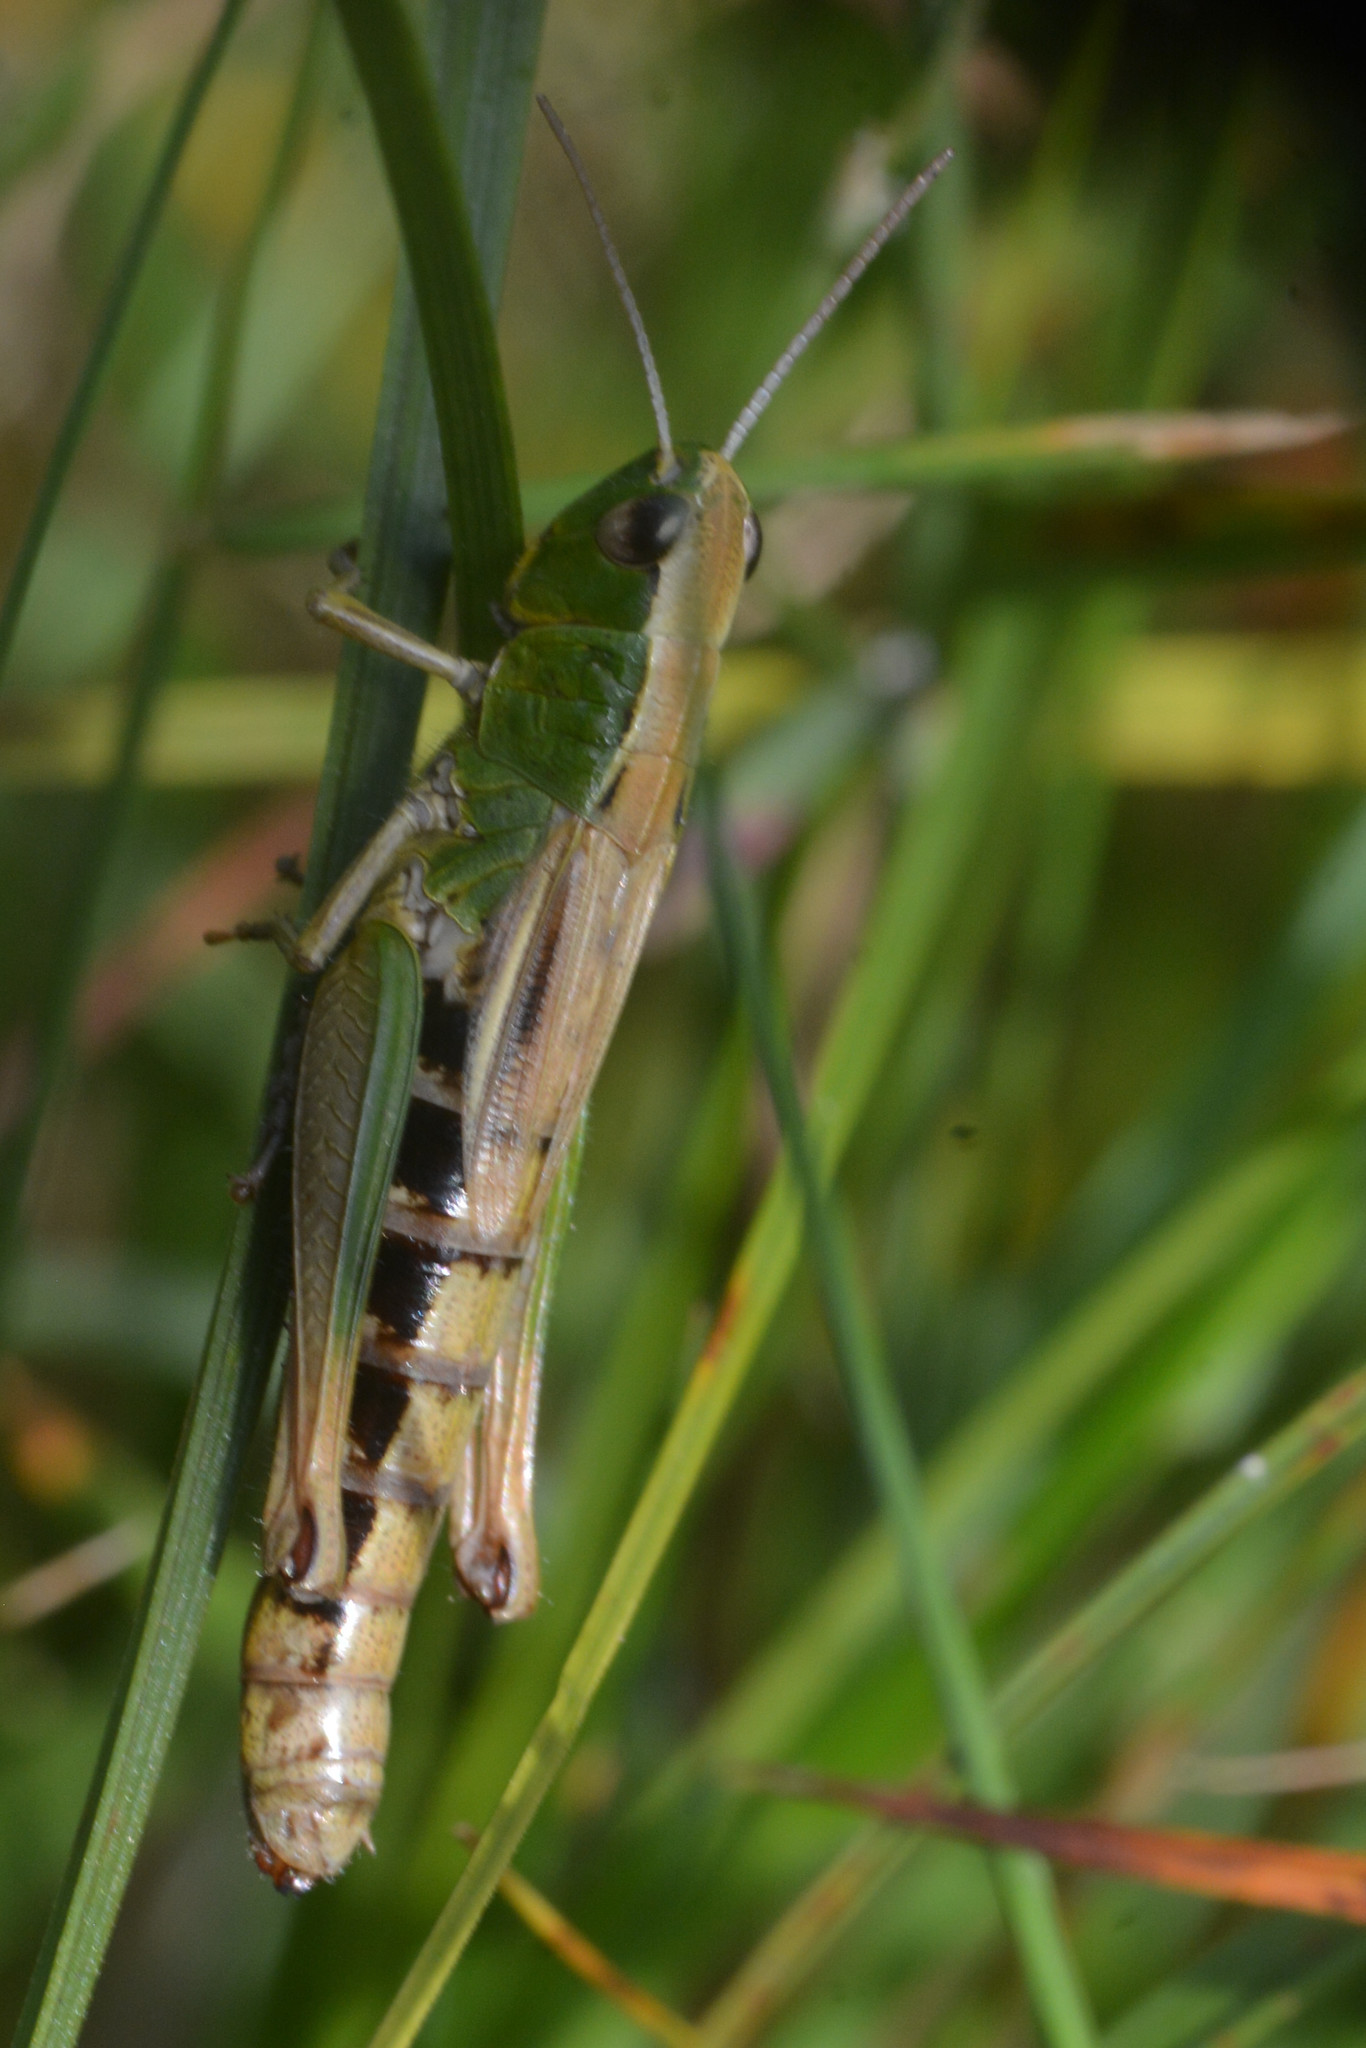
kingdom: Animalia
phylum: Arthropoda
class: Insecta
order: Orthoptera
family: Acrididae
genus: Pseudochorthippus
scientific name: Pseudochorthippus parallelus
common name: Meadow grasshopper
